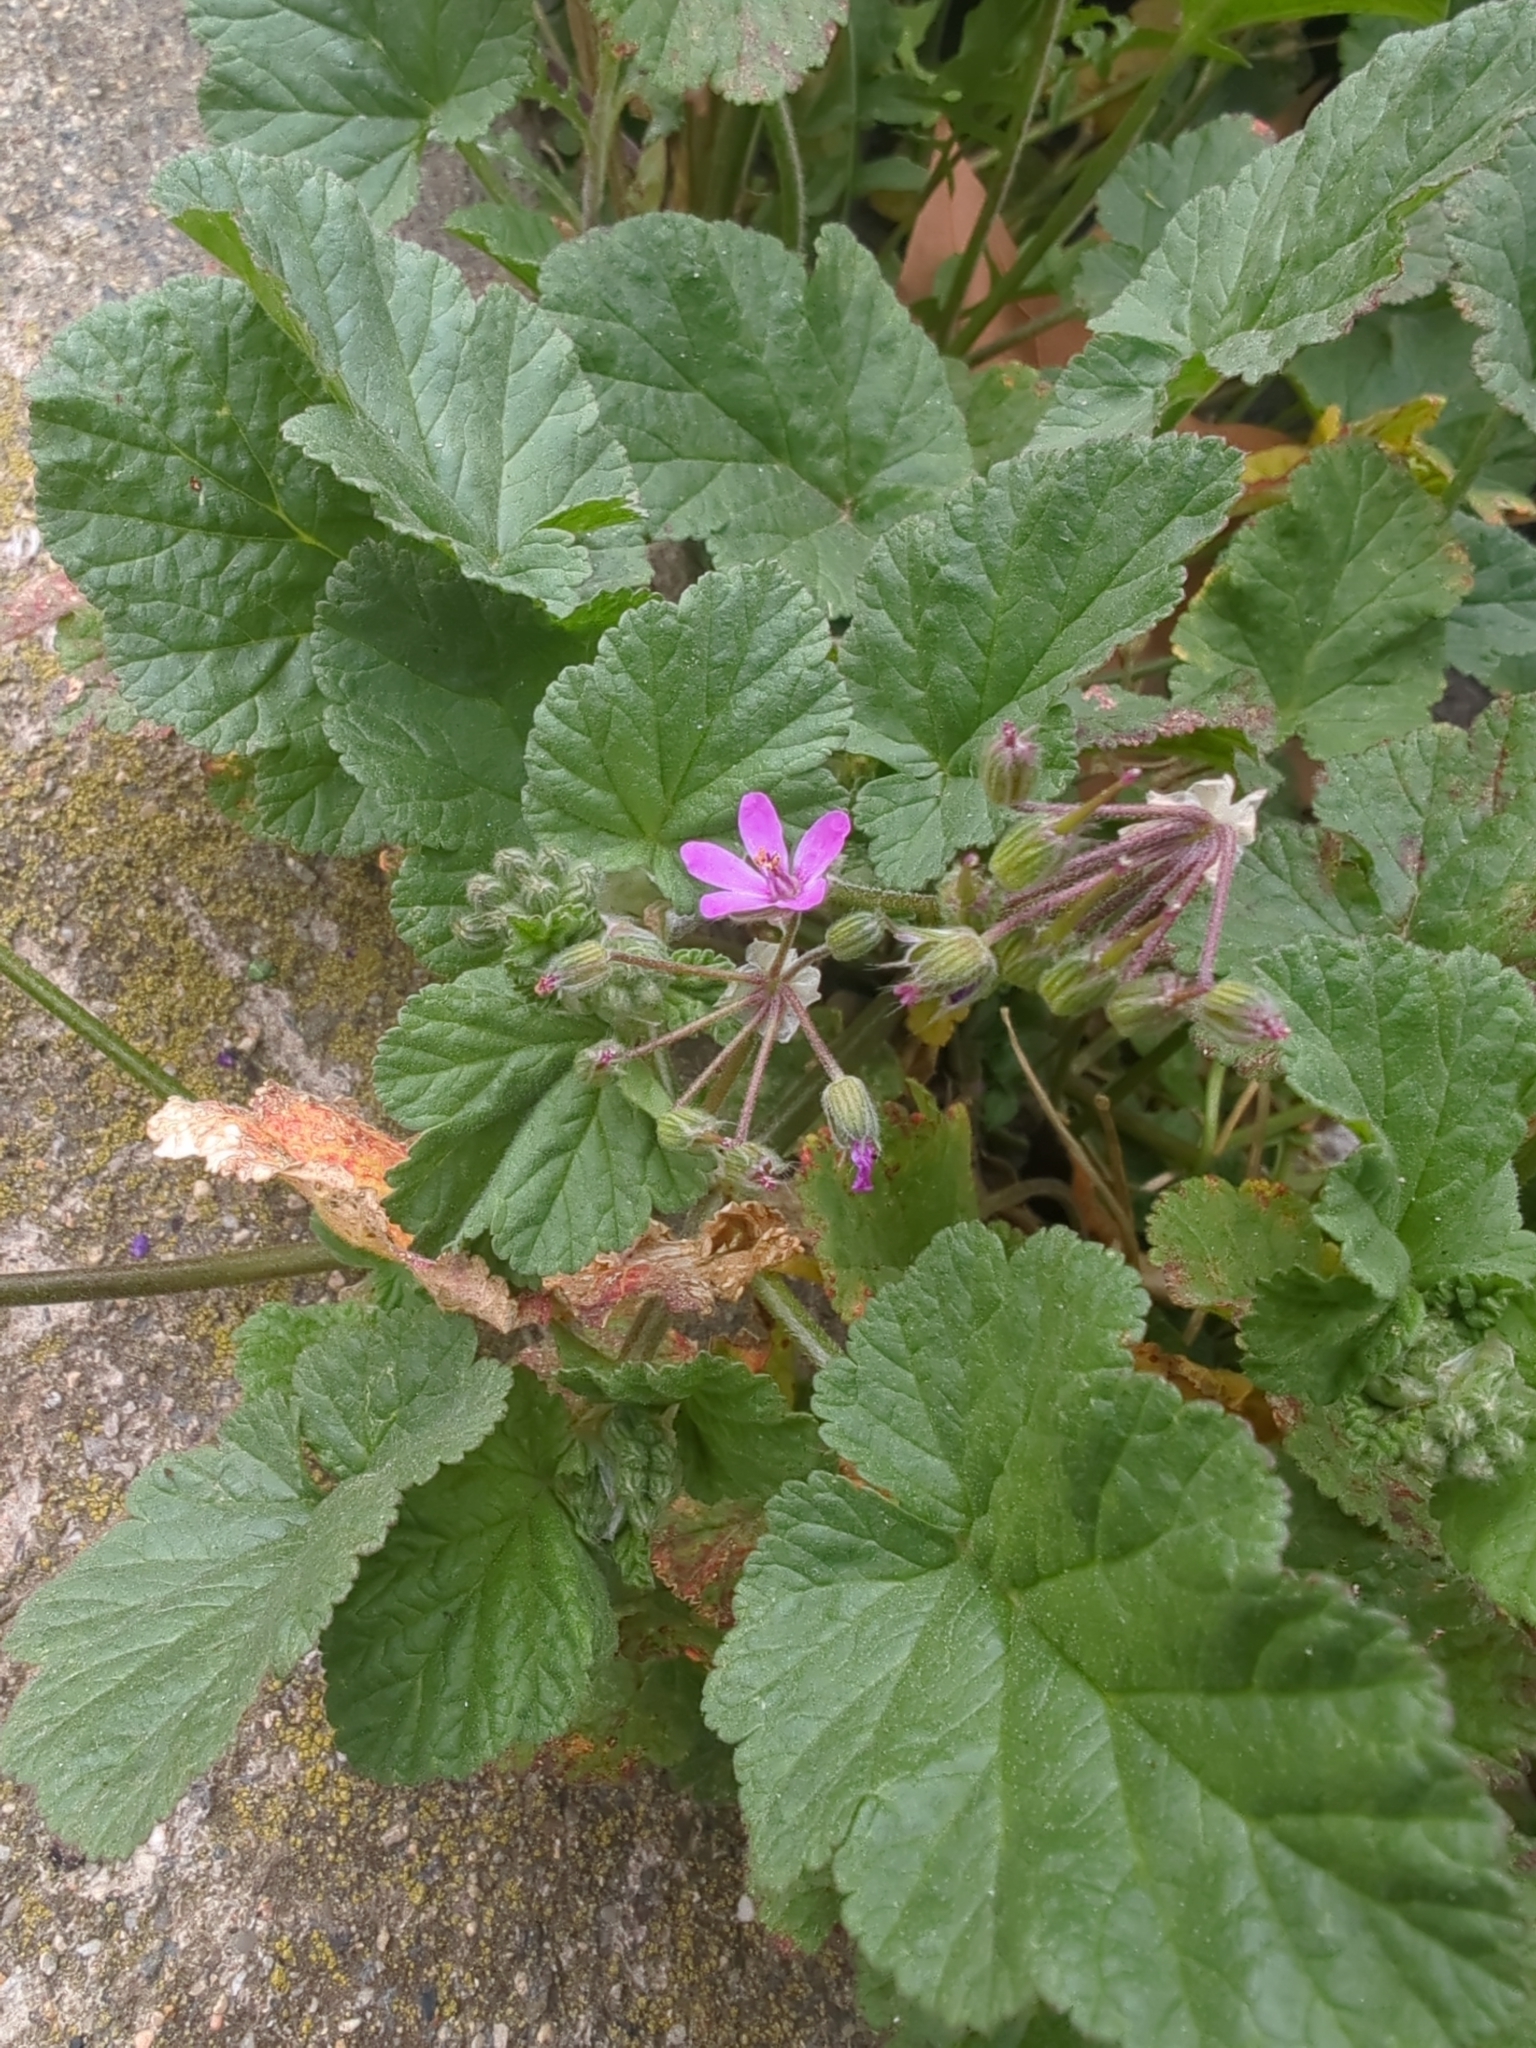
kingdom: Plantae
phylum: Tracheophyta
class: Magnoliopsida
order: Geraniales
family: Geraniaceae
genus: Erodium
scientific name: Erodium malacoides
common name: Soft stork's-bill
